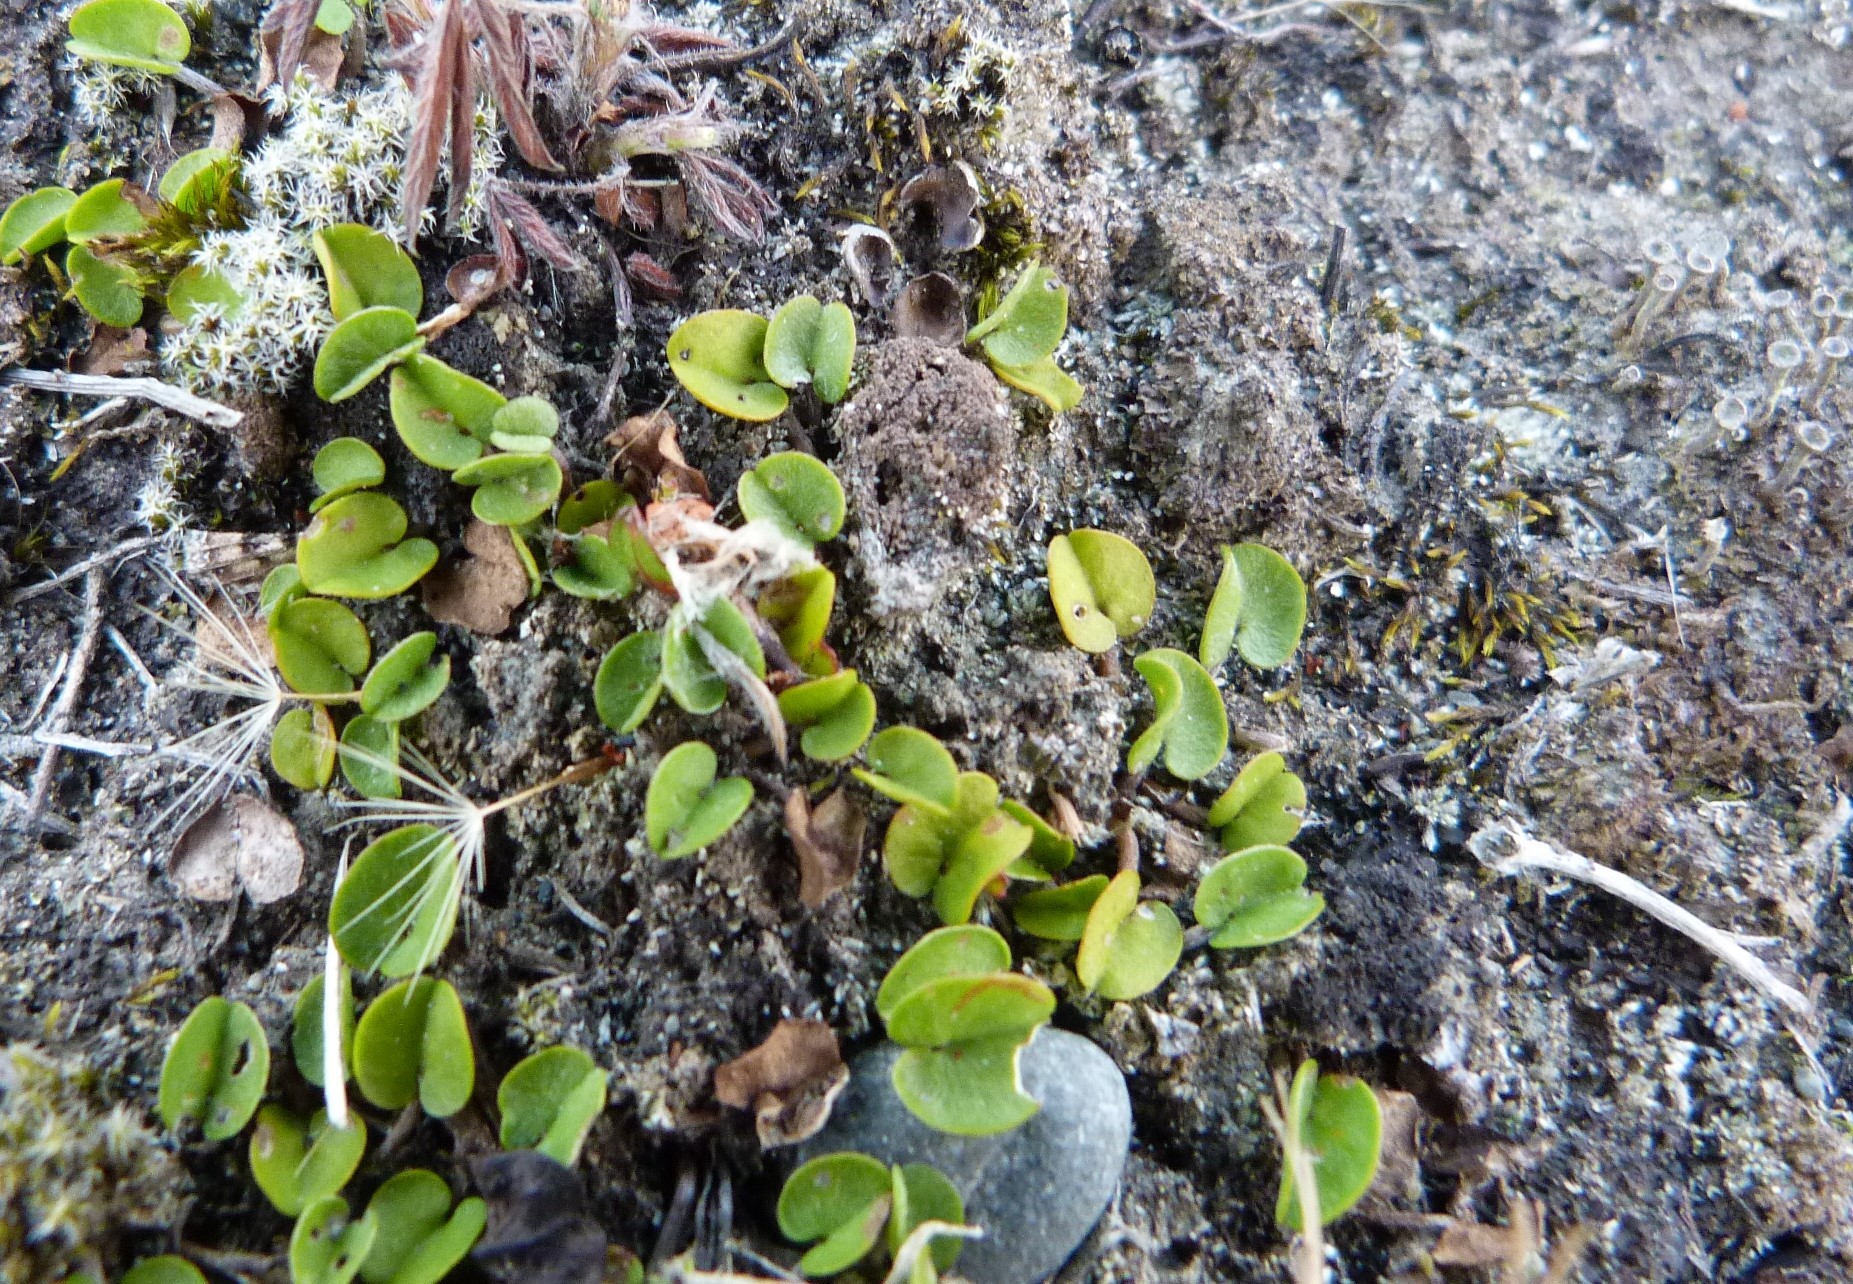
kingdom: Plantae
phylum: Tracheophyta
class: Magnoliopsida
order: Solanales
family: Convolvulaceae
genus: Dichondra
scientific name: Dichondra brevifolia
